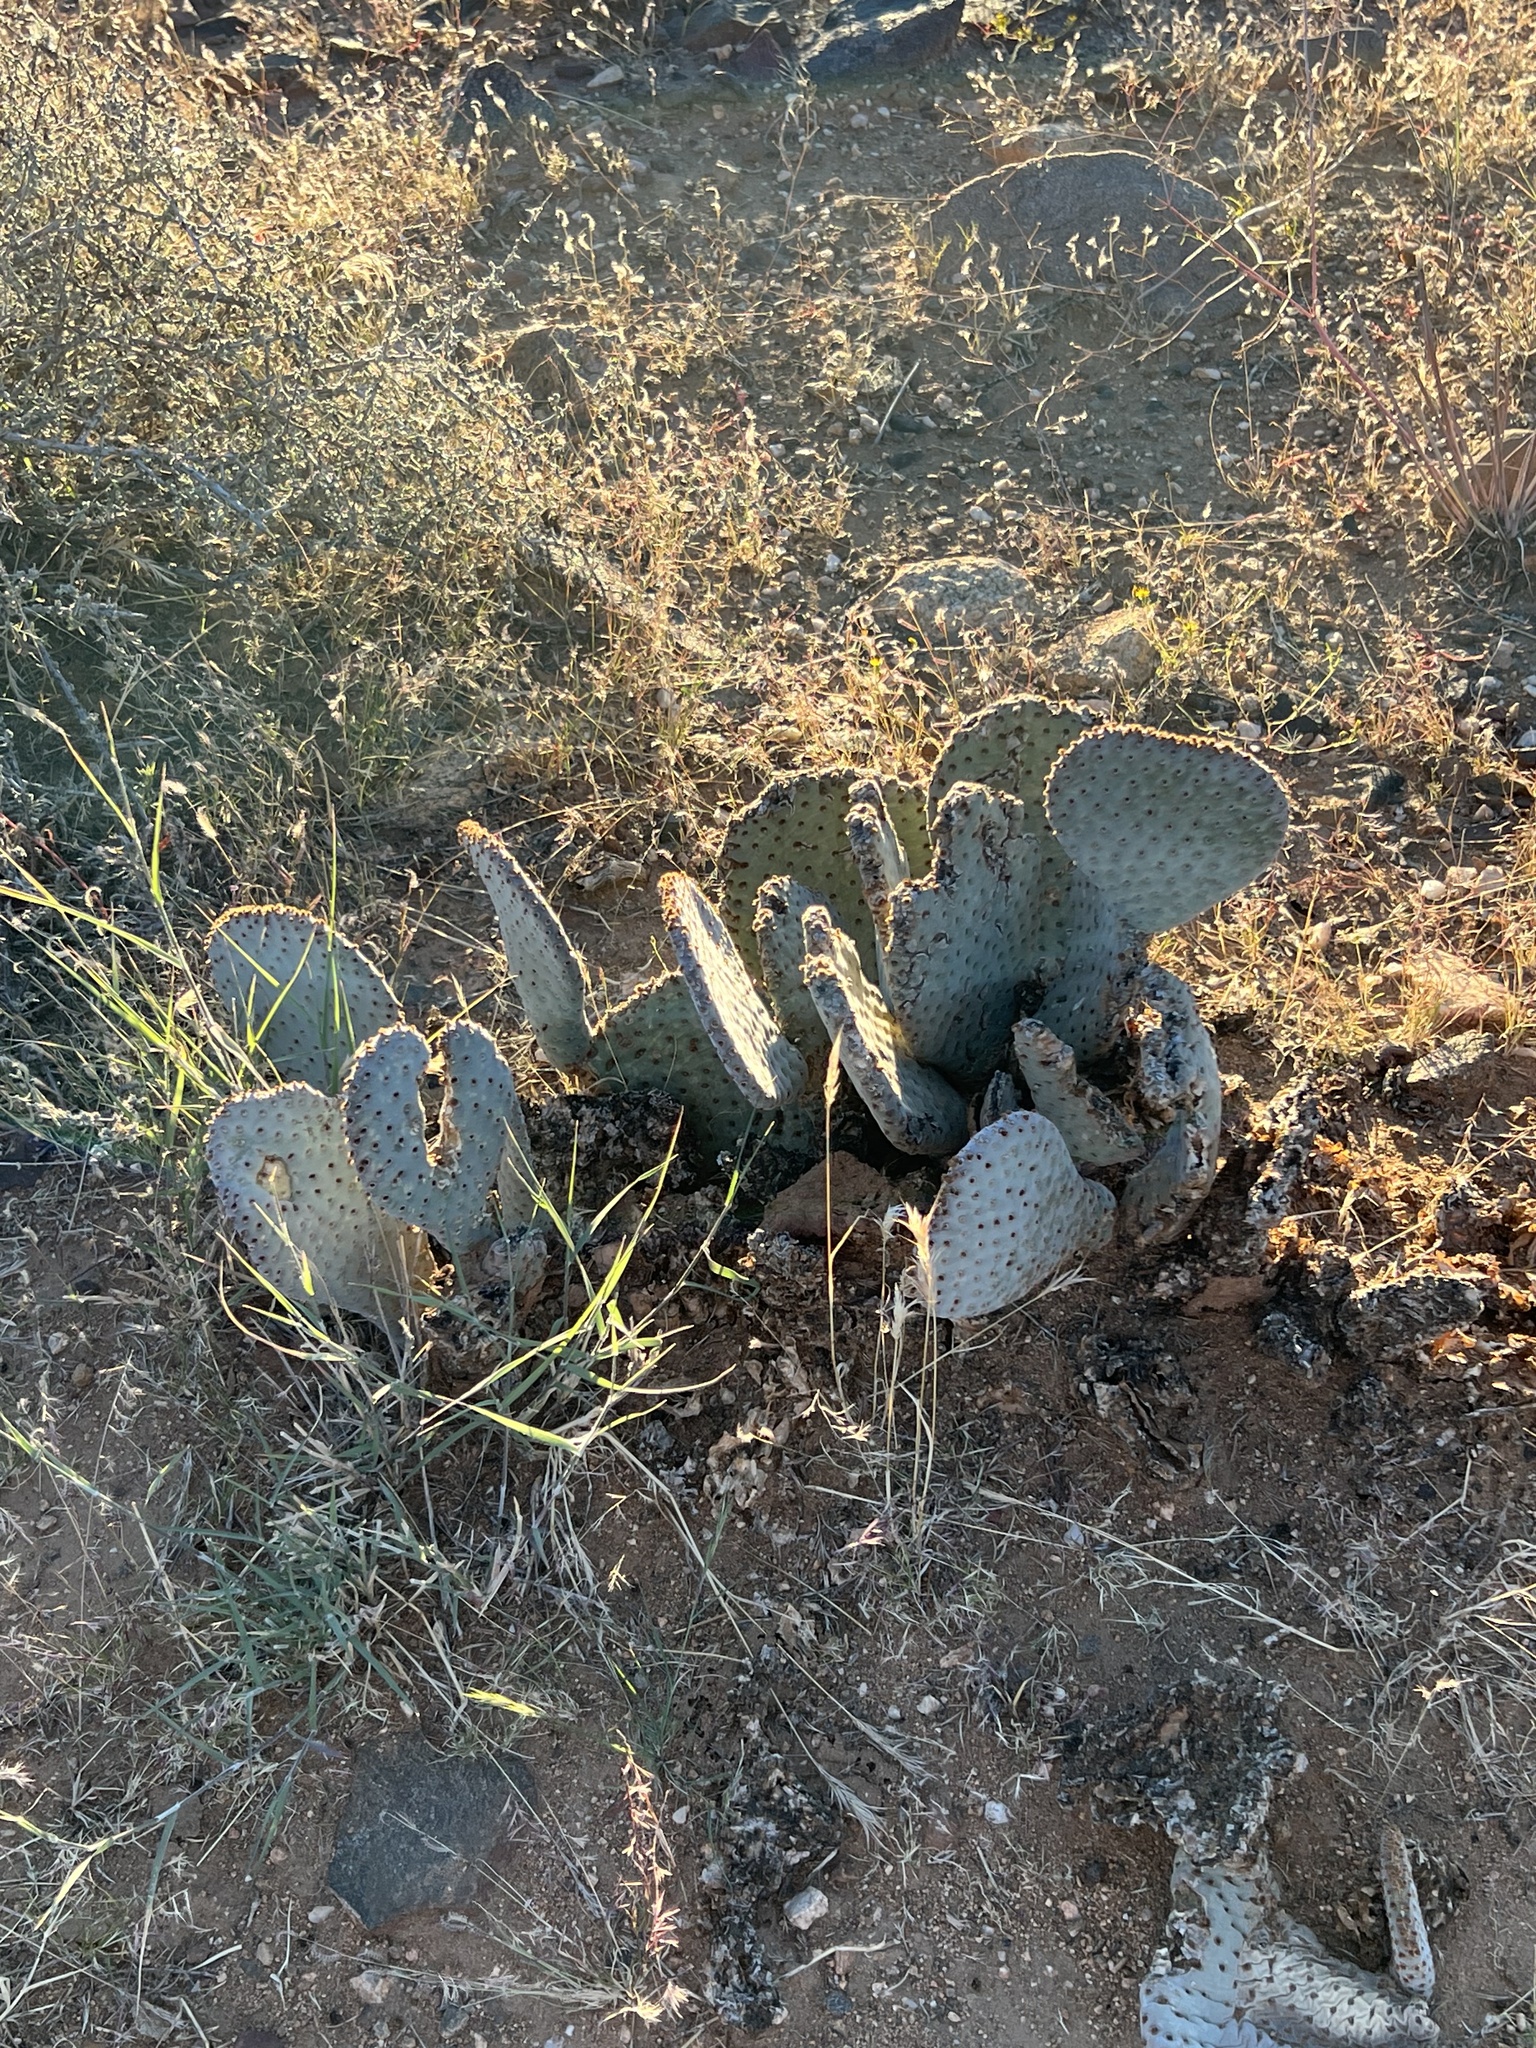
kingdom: Plantae
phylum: Tracheophyta
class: Magnoliopsida
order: Caryophyllales
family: Cactaceae
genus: Opuntia
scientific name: Opuntia basilaris
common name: Beavertail prickly-pear
